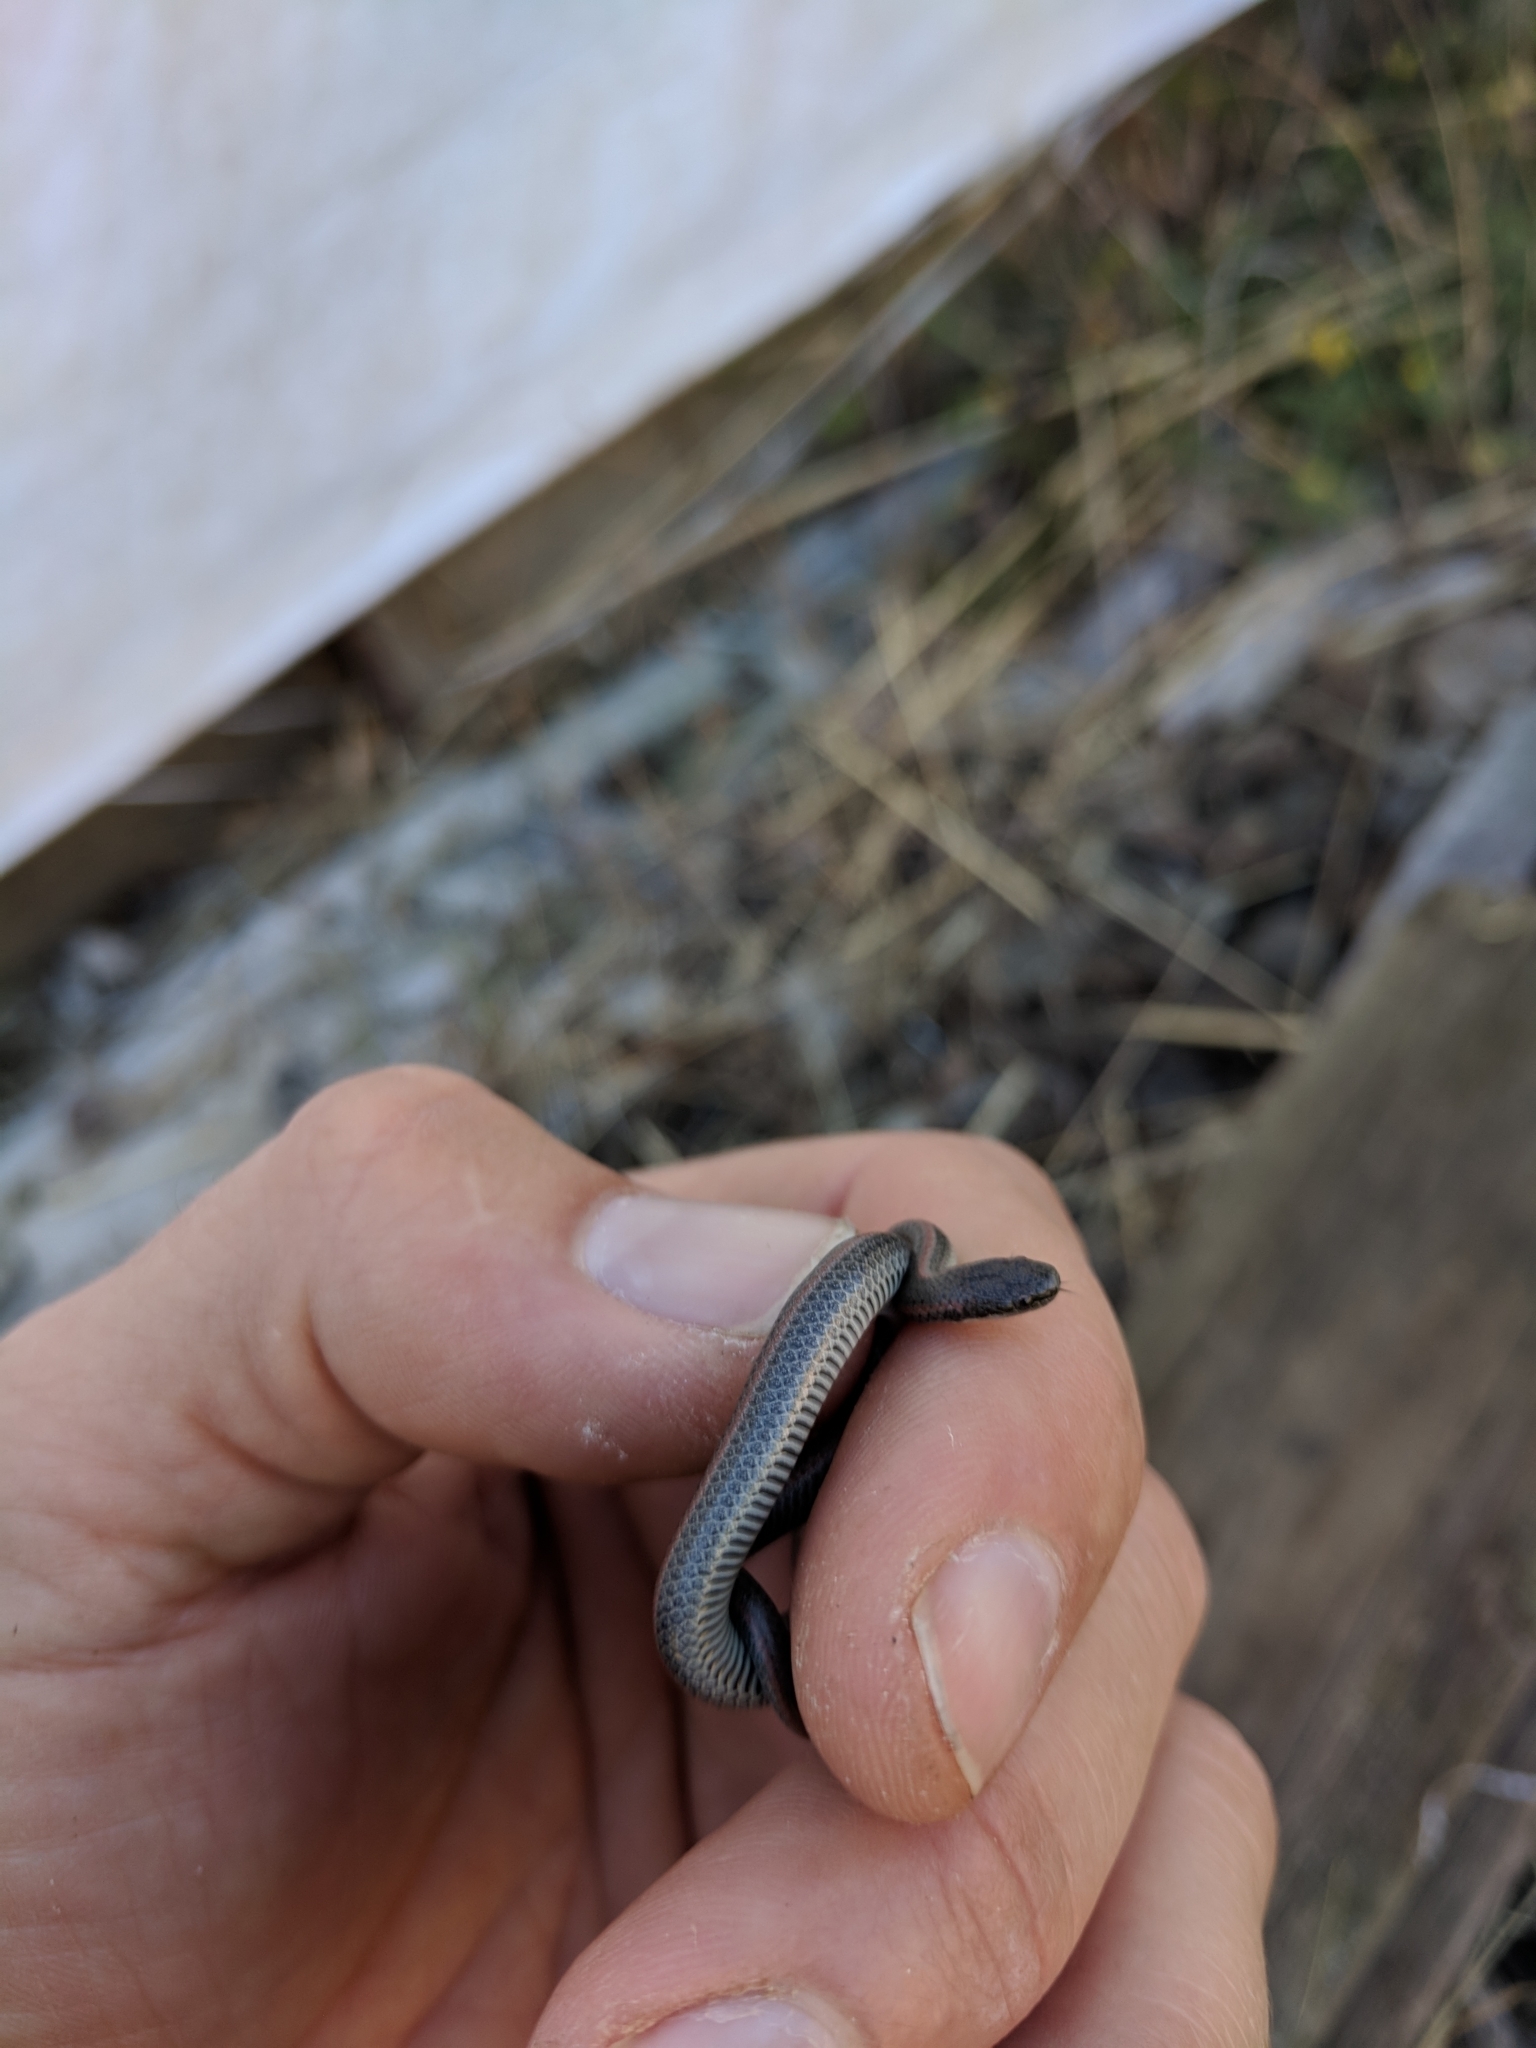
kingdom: Animalia
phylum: Chordata
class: Squamata
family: Colubridae
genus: Contia
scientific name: Contia tenuis
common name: Sharptail snake
